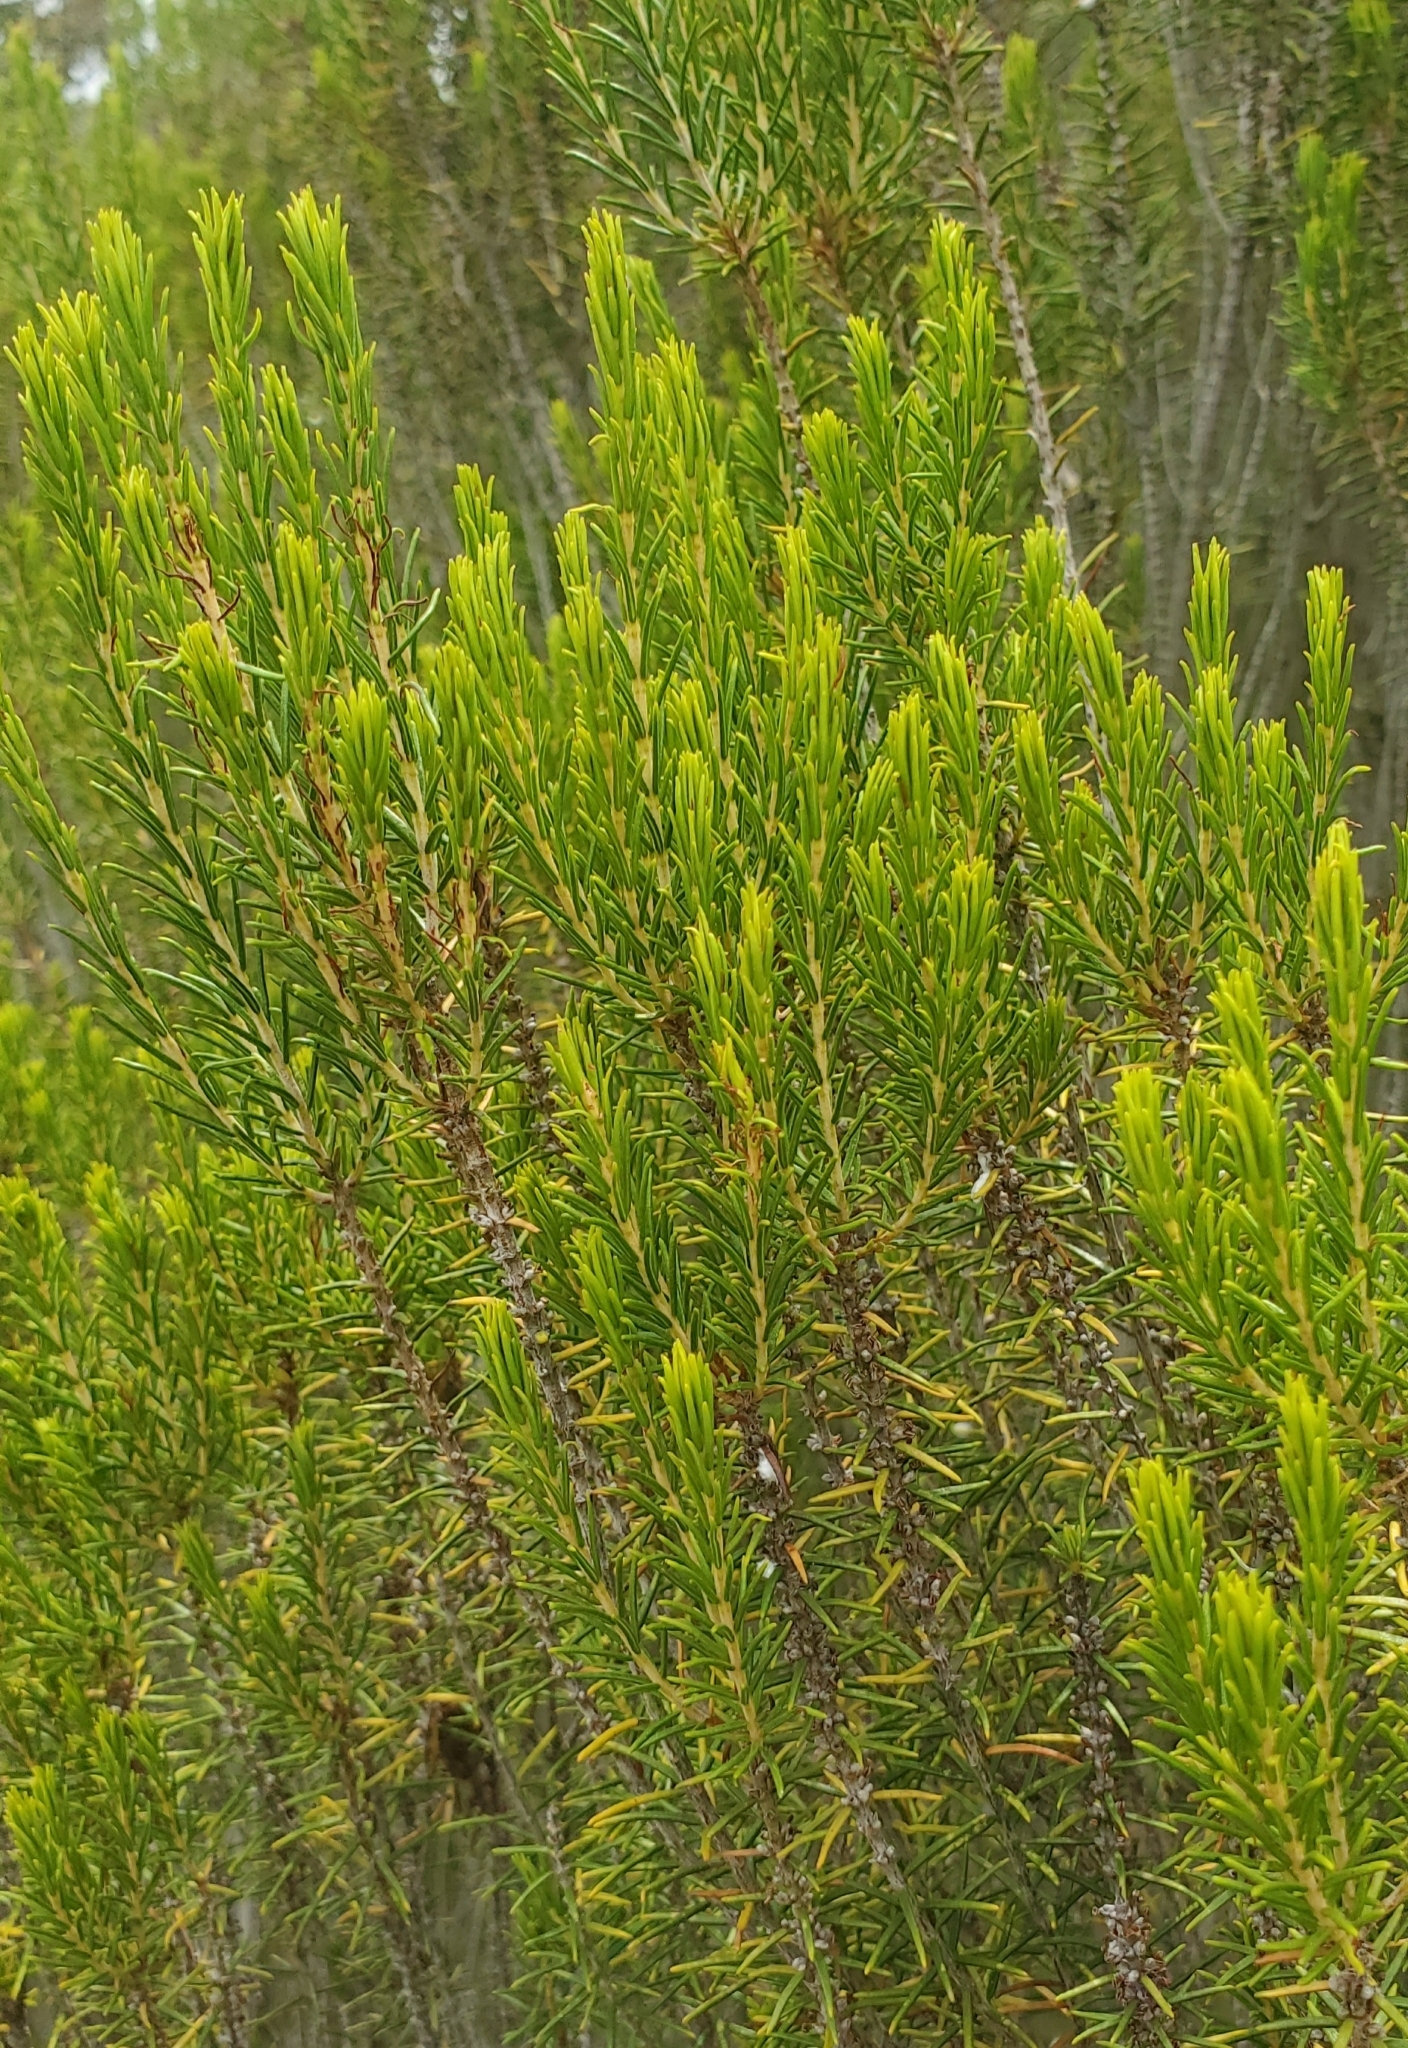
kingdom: Plantae
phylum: Tracheophyta
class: Magnoliopsida
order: Ericales
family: Ericaceae
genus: Ceratiola
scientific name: Ceratiola ericoides
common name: Sandhill-rosemary
